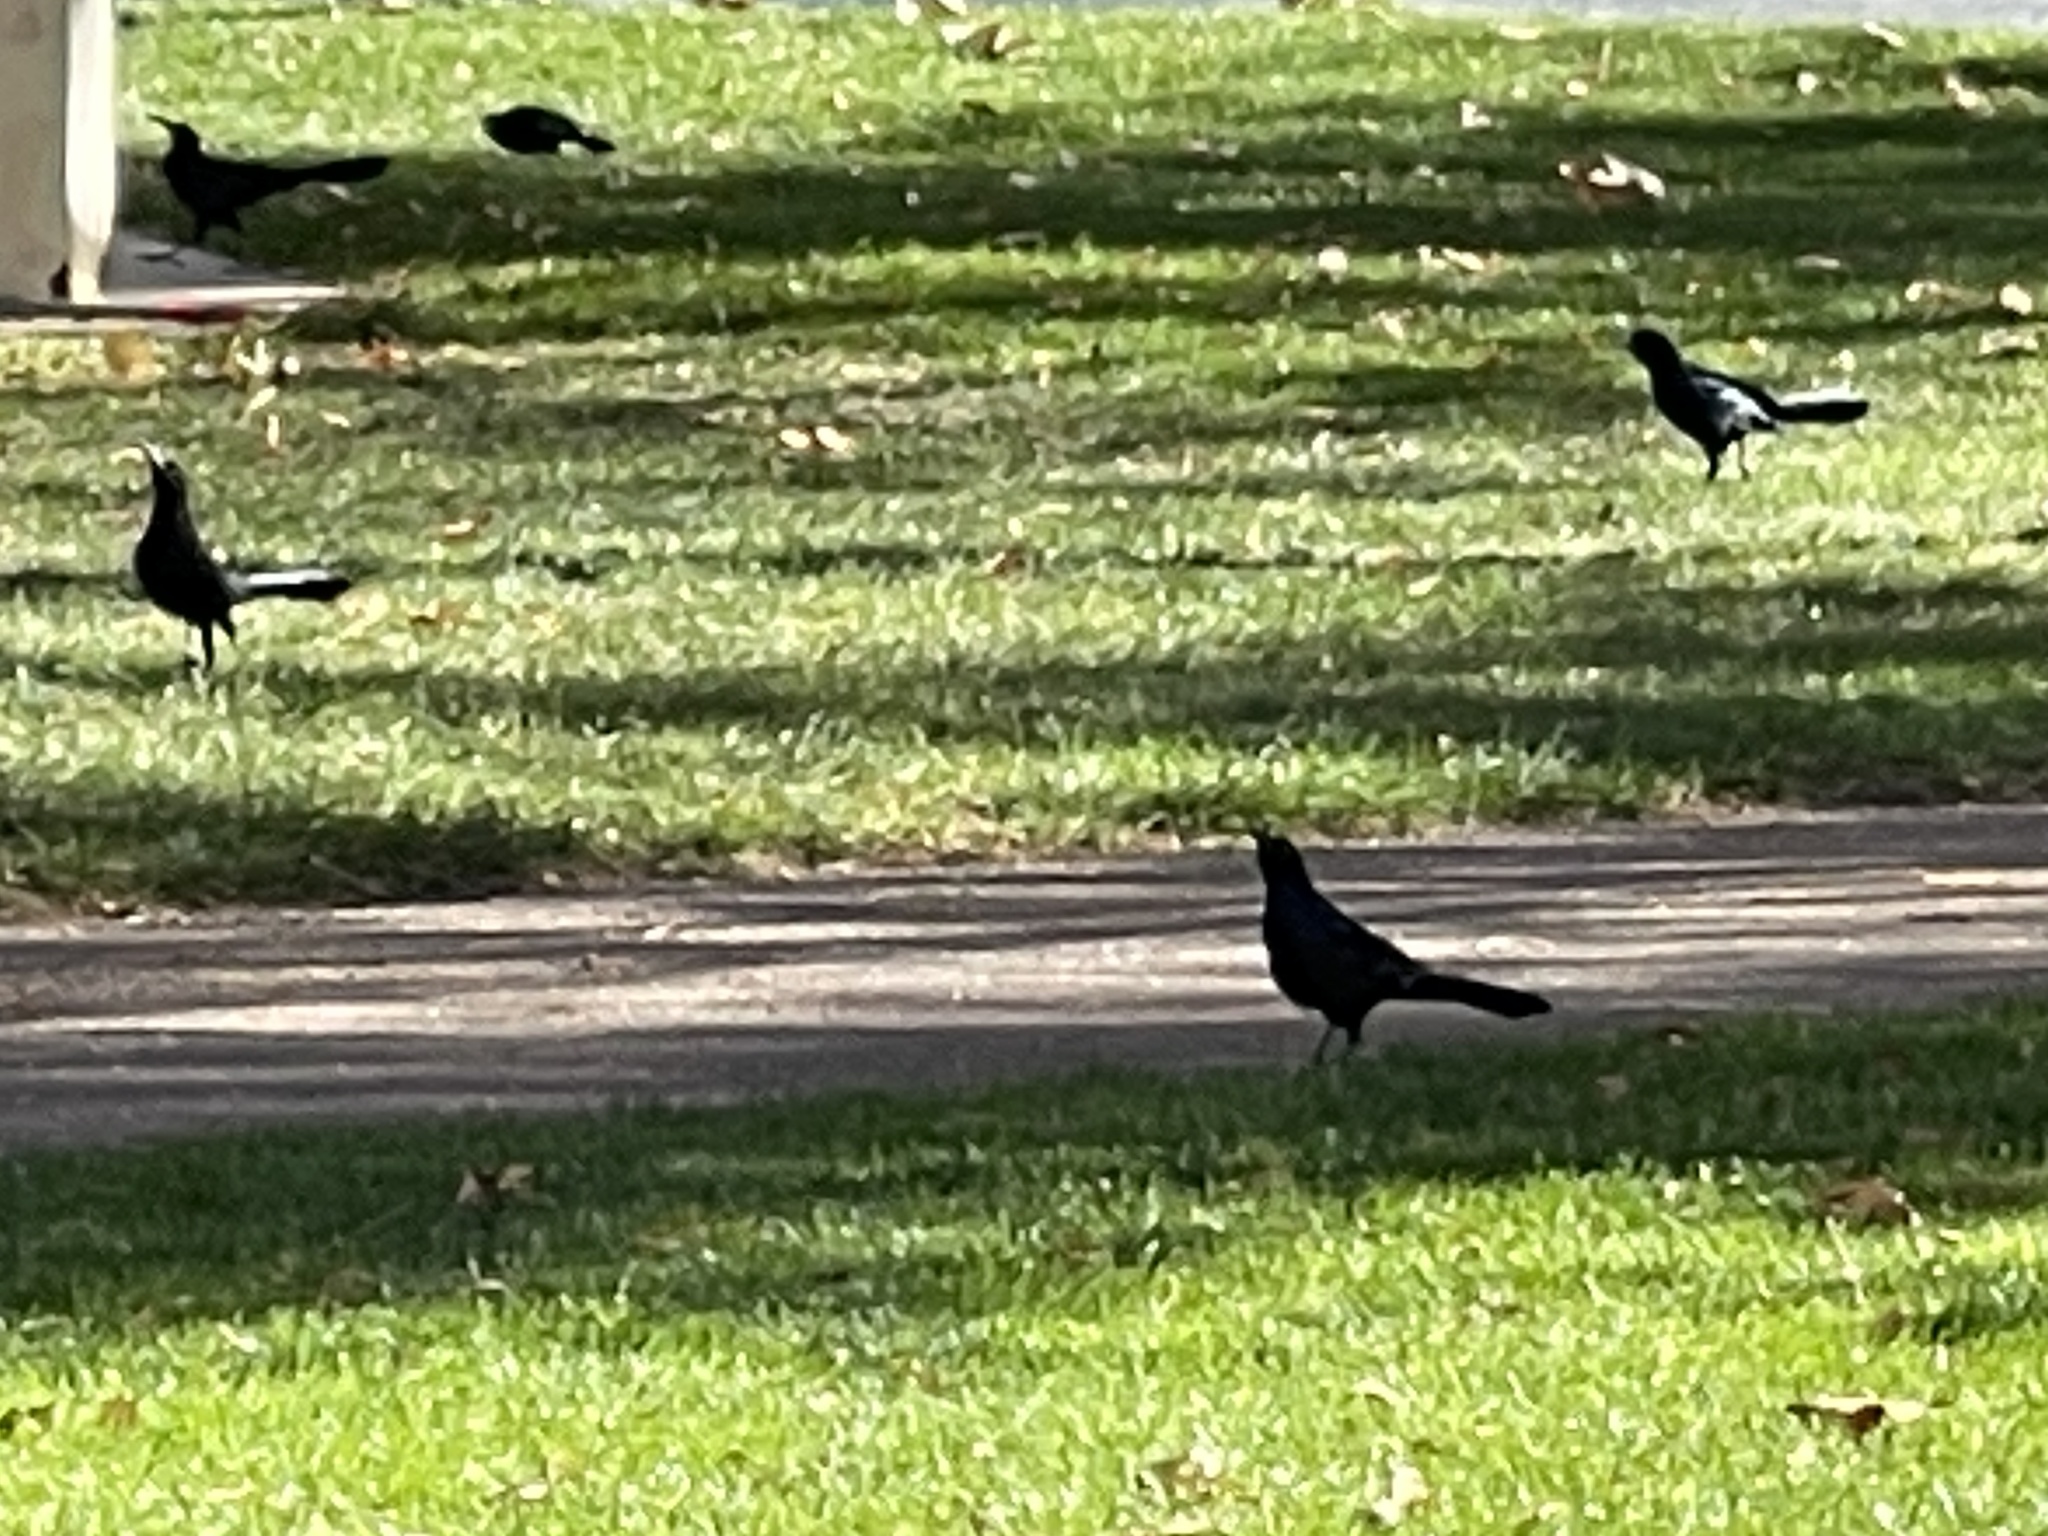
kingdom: Animalia
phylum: Chordata
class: Aves
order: Passeriformes
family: Icteridae
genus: Quiscalus
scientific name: Quiscalus mexicanus
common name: Great-tailed grackle
